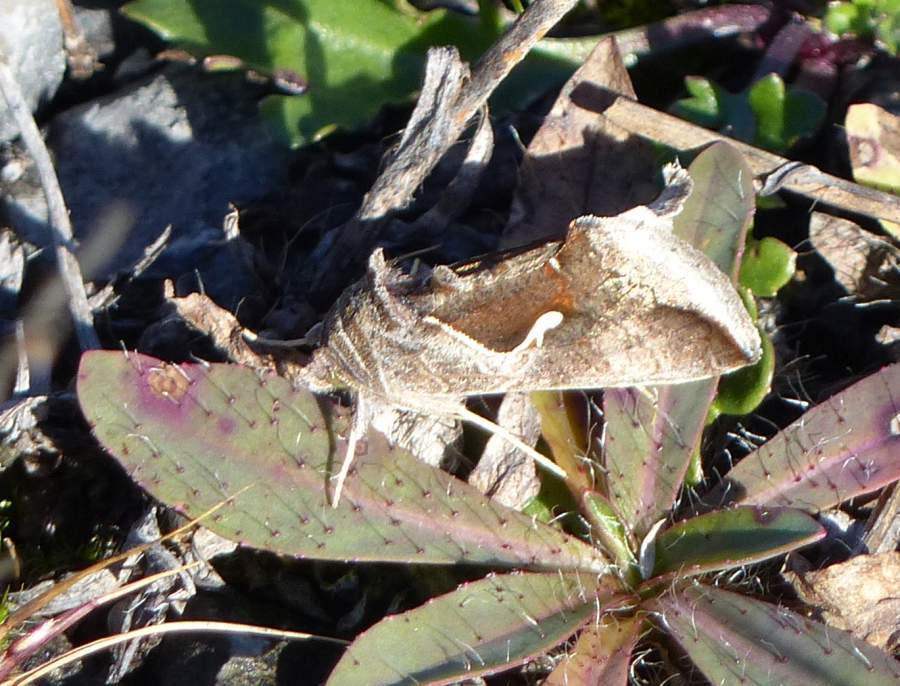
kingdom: Animalia
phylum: Arthropoda
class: Insecta
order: Lepidoptera
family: Noctuidae
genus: Anagrapha
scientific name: Anagrapha falcifera
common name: Celery looper
